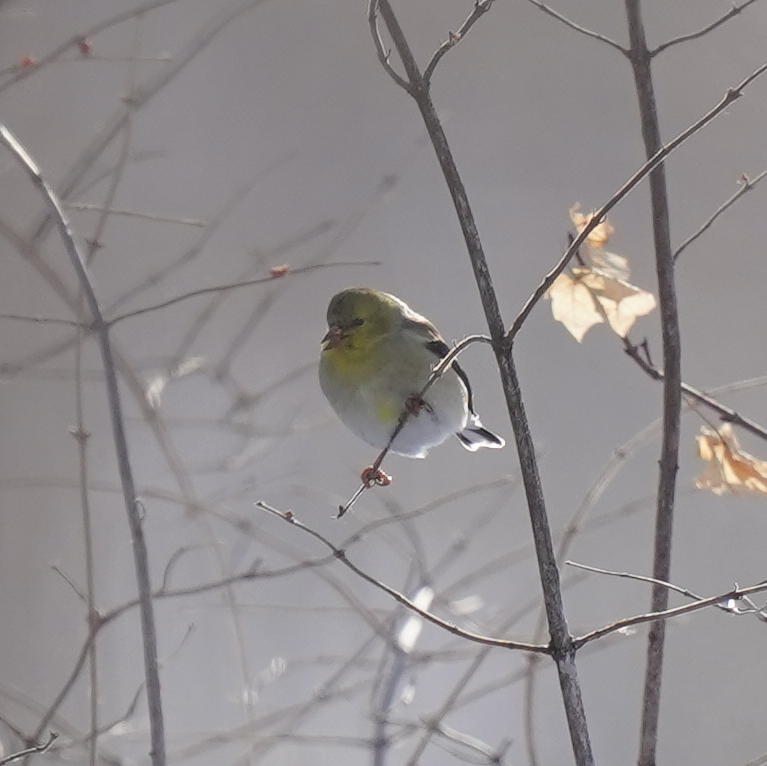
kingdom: Animalia
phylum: Chordata
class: Aves
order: Passeriformes
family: Fringillidae
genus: Spinus
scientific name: Spinus tristis
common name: American goldfinch
